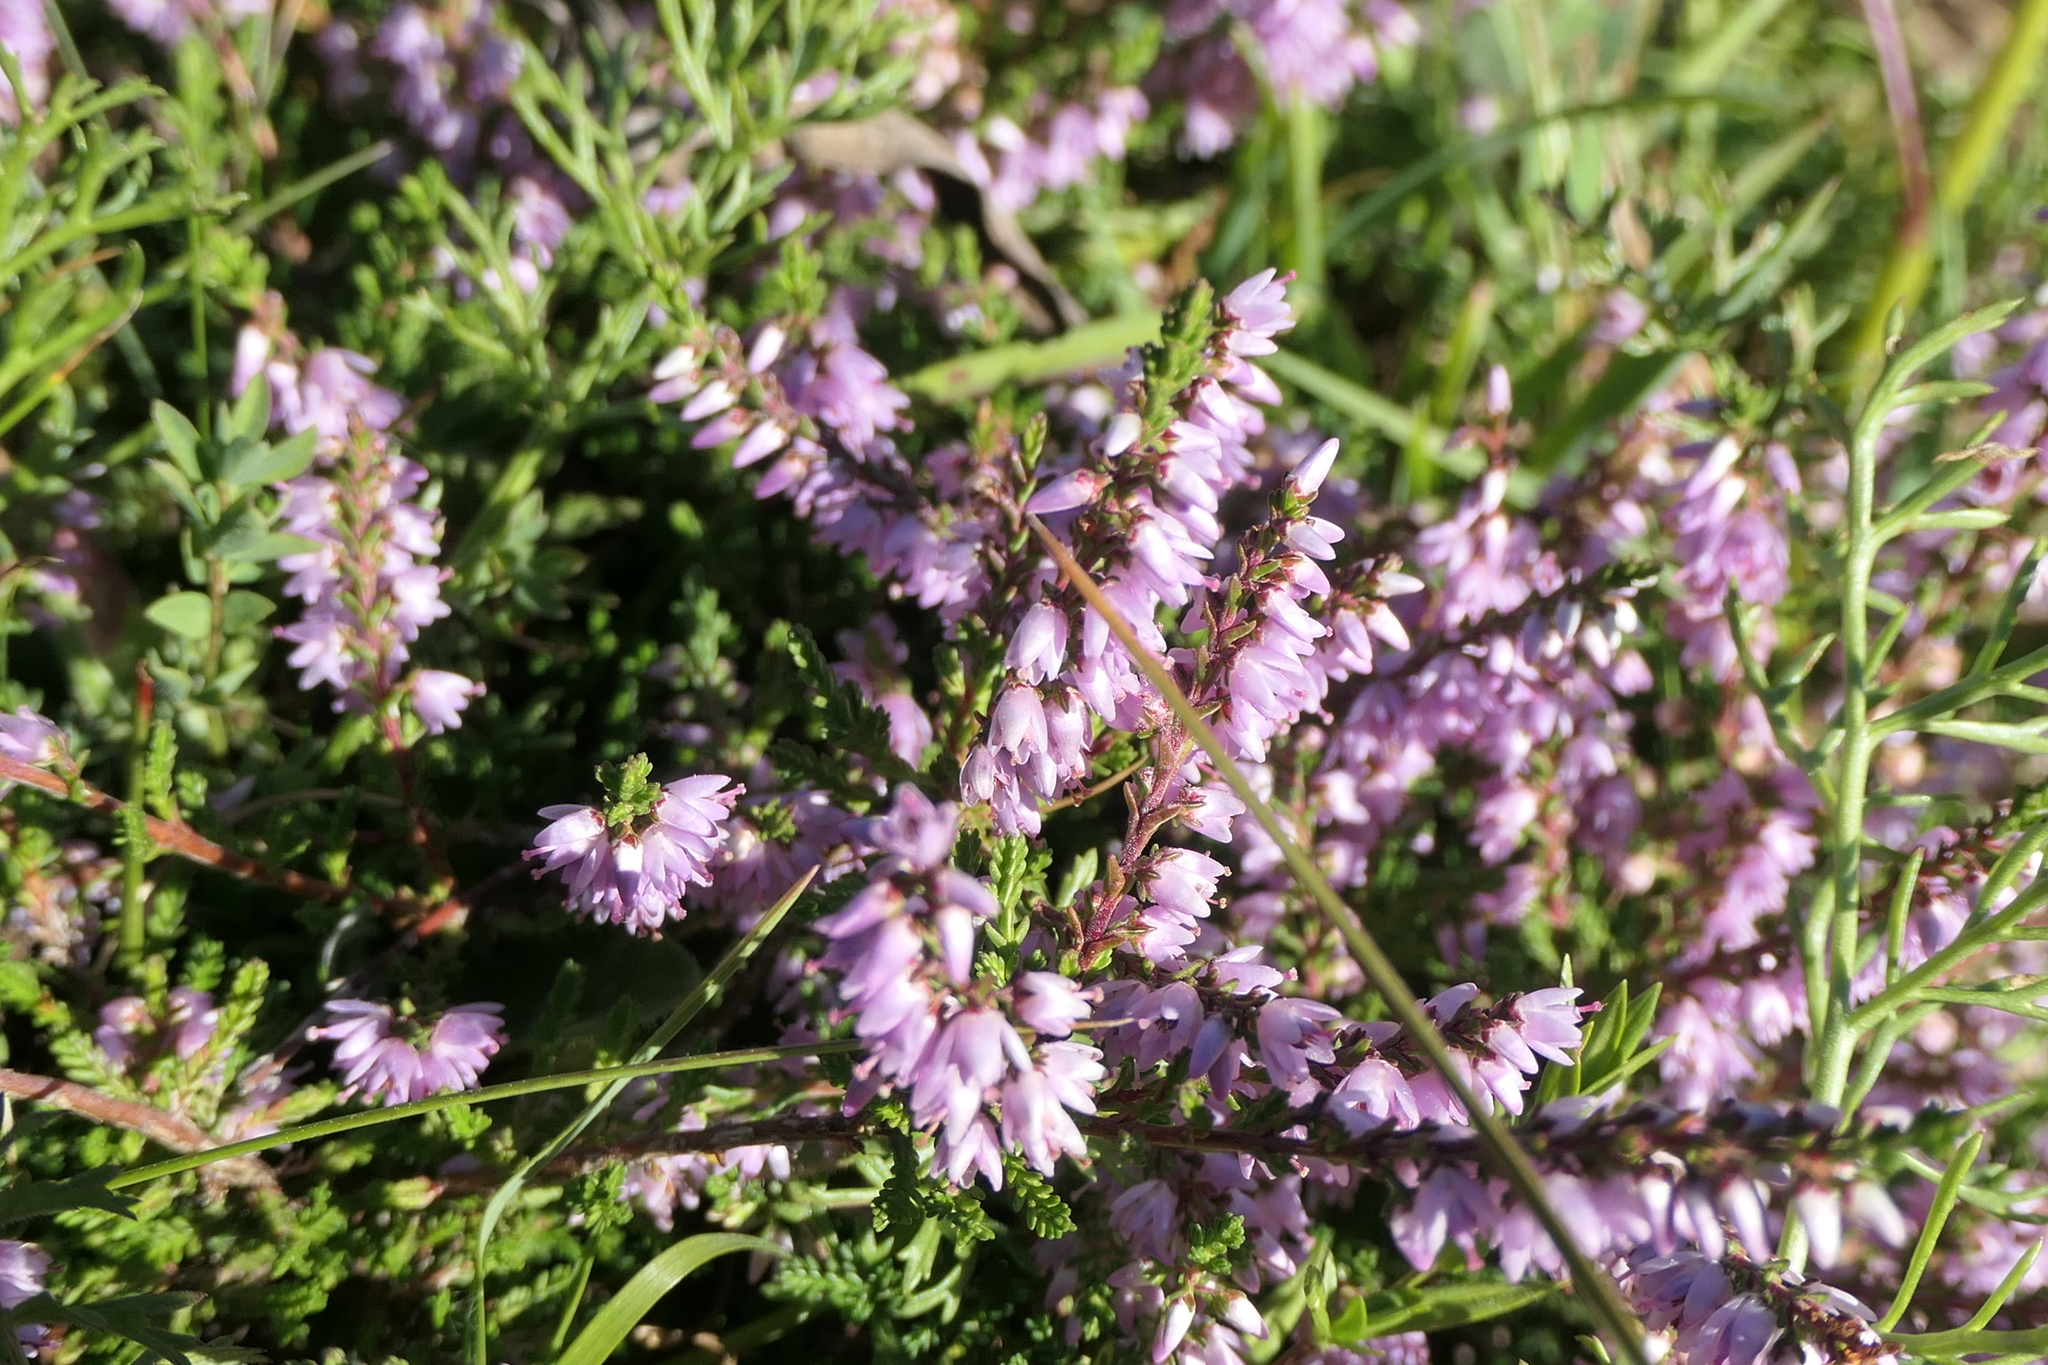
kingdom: Plantae
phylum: Tracheophyta
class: Magnoliopsida
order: Ericales
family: Ericaceae
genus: Calluna
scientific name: Calluna vulgaris
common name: Heather
